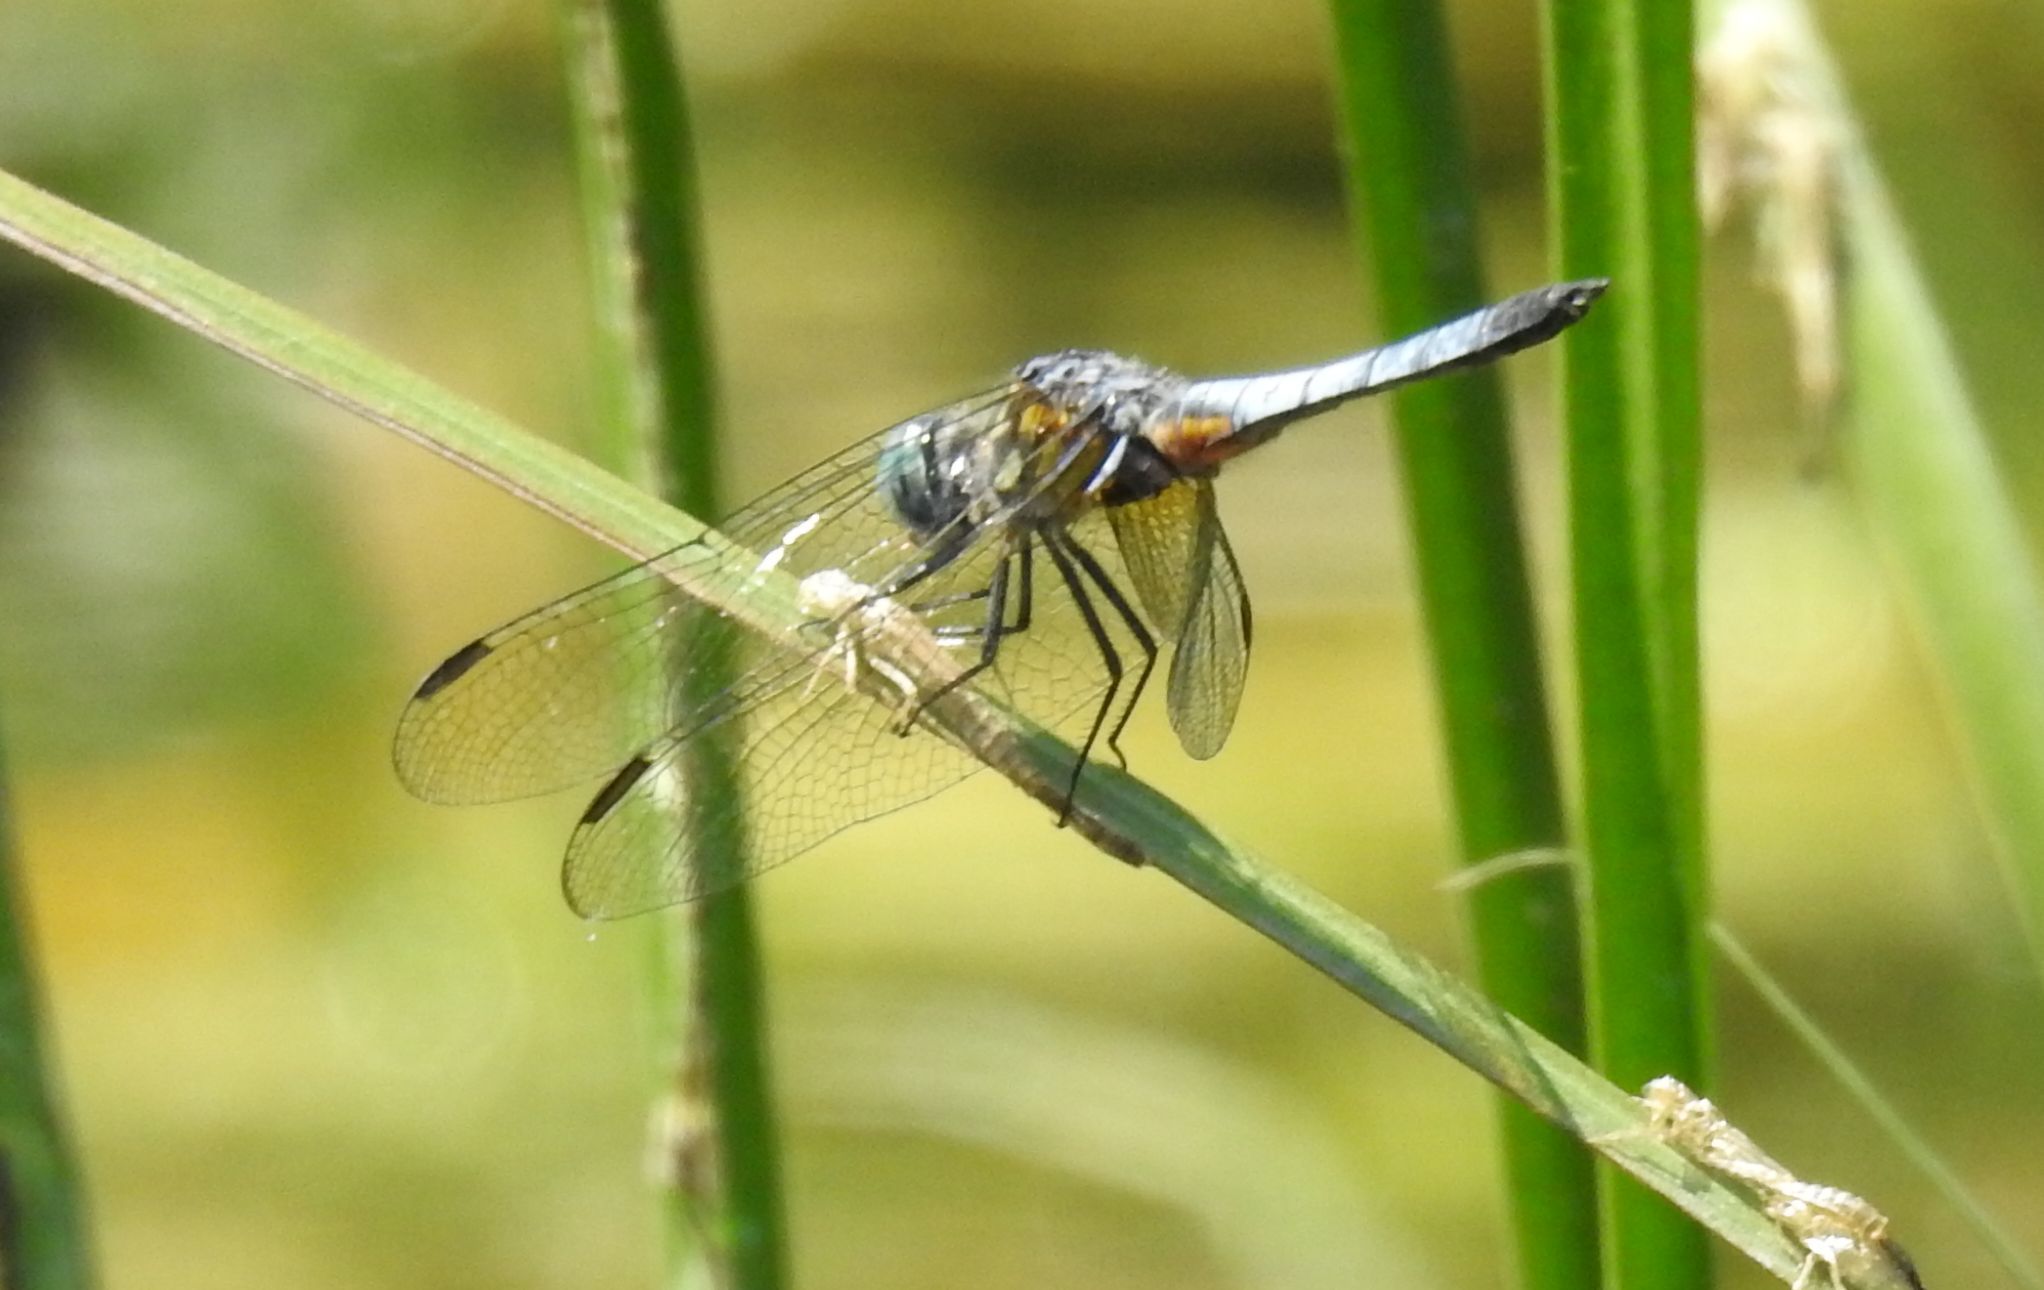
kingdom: Animalia
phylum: Arthropoda
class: Insecta
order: Odonata
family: Libellulidae
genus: Pachydiplax
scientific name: Pachydiplax longipennis
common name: Blue dasher
